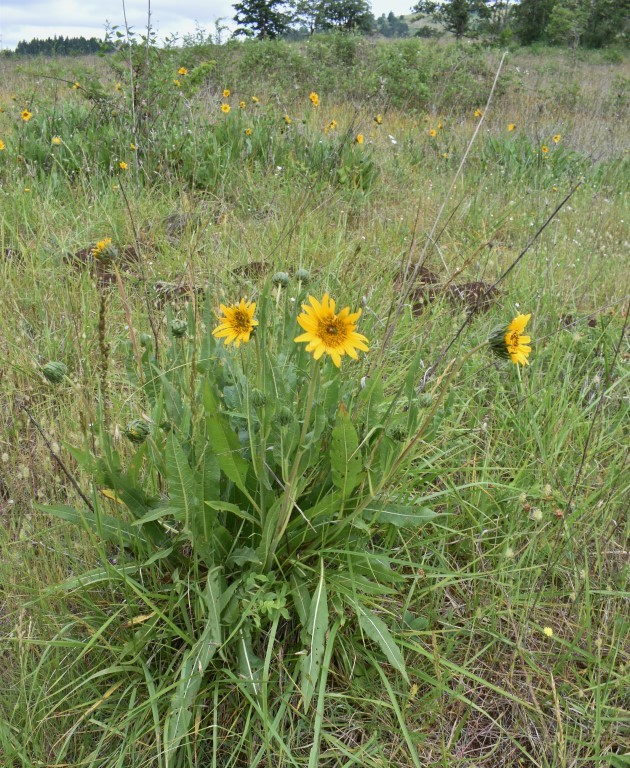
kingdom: Animalia
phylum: Arthropoda
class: Insecta
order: Hymenoptera
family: Halictidae
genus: Agapostemon
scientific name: Agapostemon virescens
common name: Bicolored striped sweat bee
